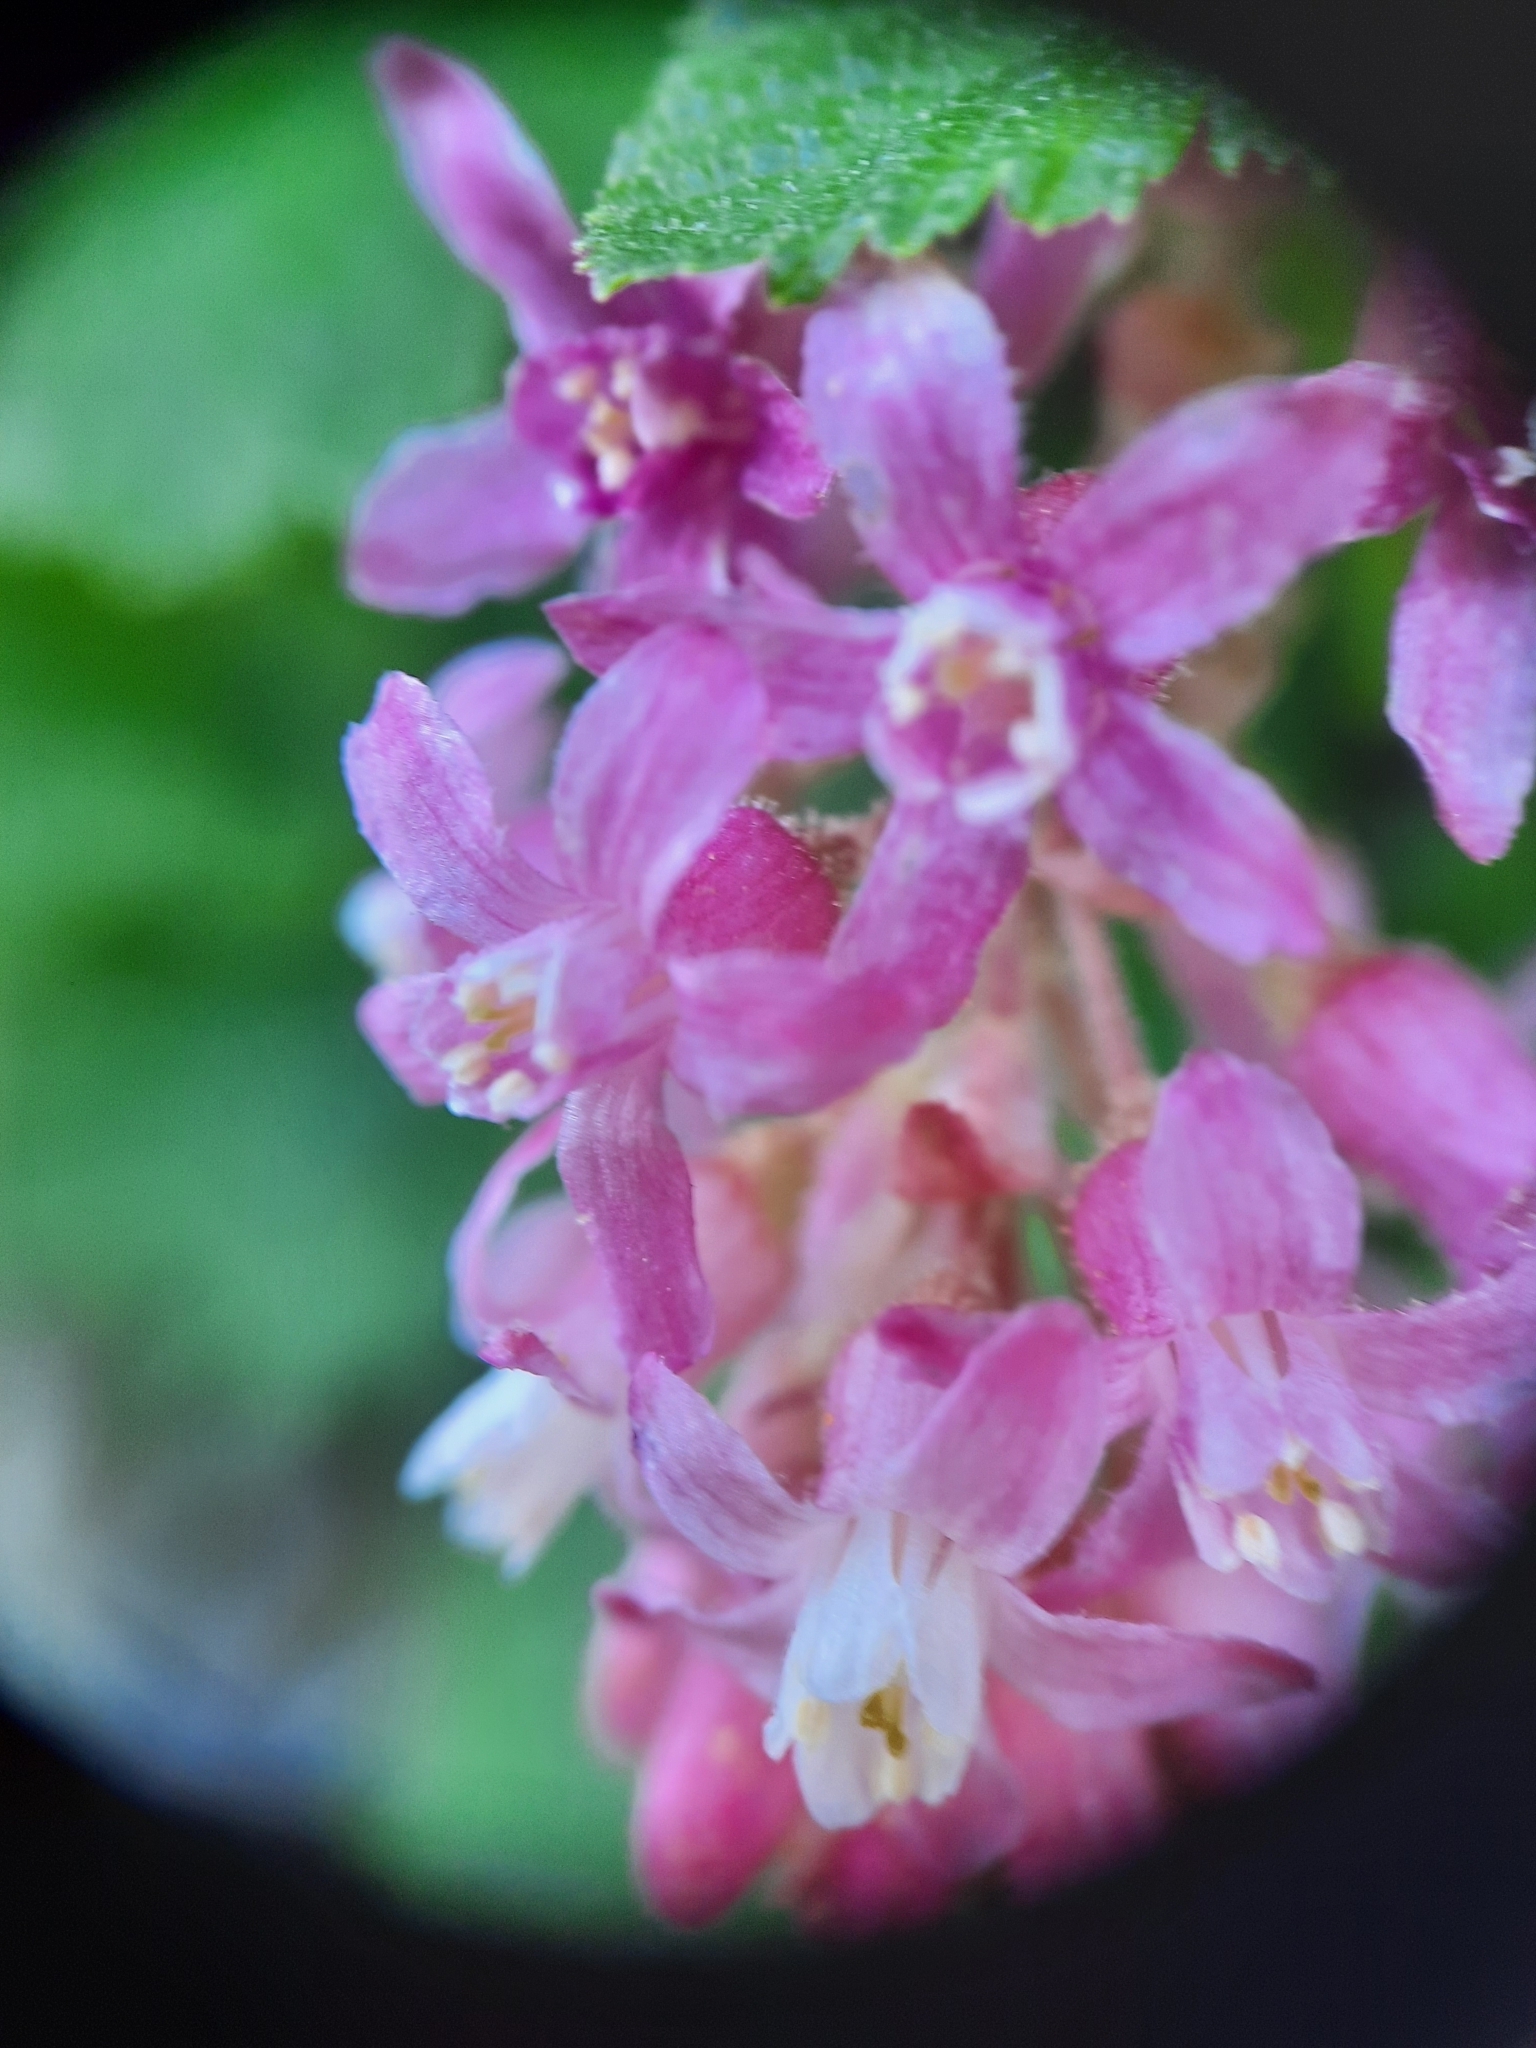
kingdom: Plantae
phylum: Tracheophyta
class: Magnoliopsida
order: Saxifragales
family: Grossulariaceae
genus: Ribes
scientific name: Ribes sanguineum
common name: Flowering currant
